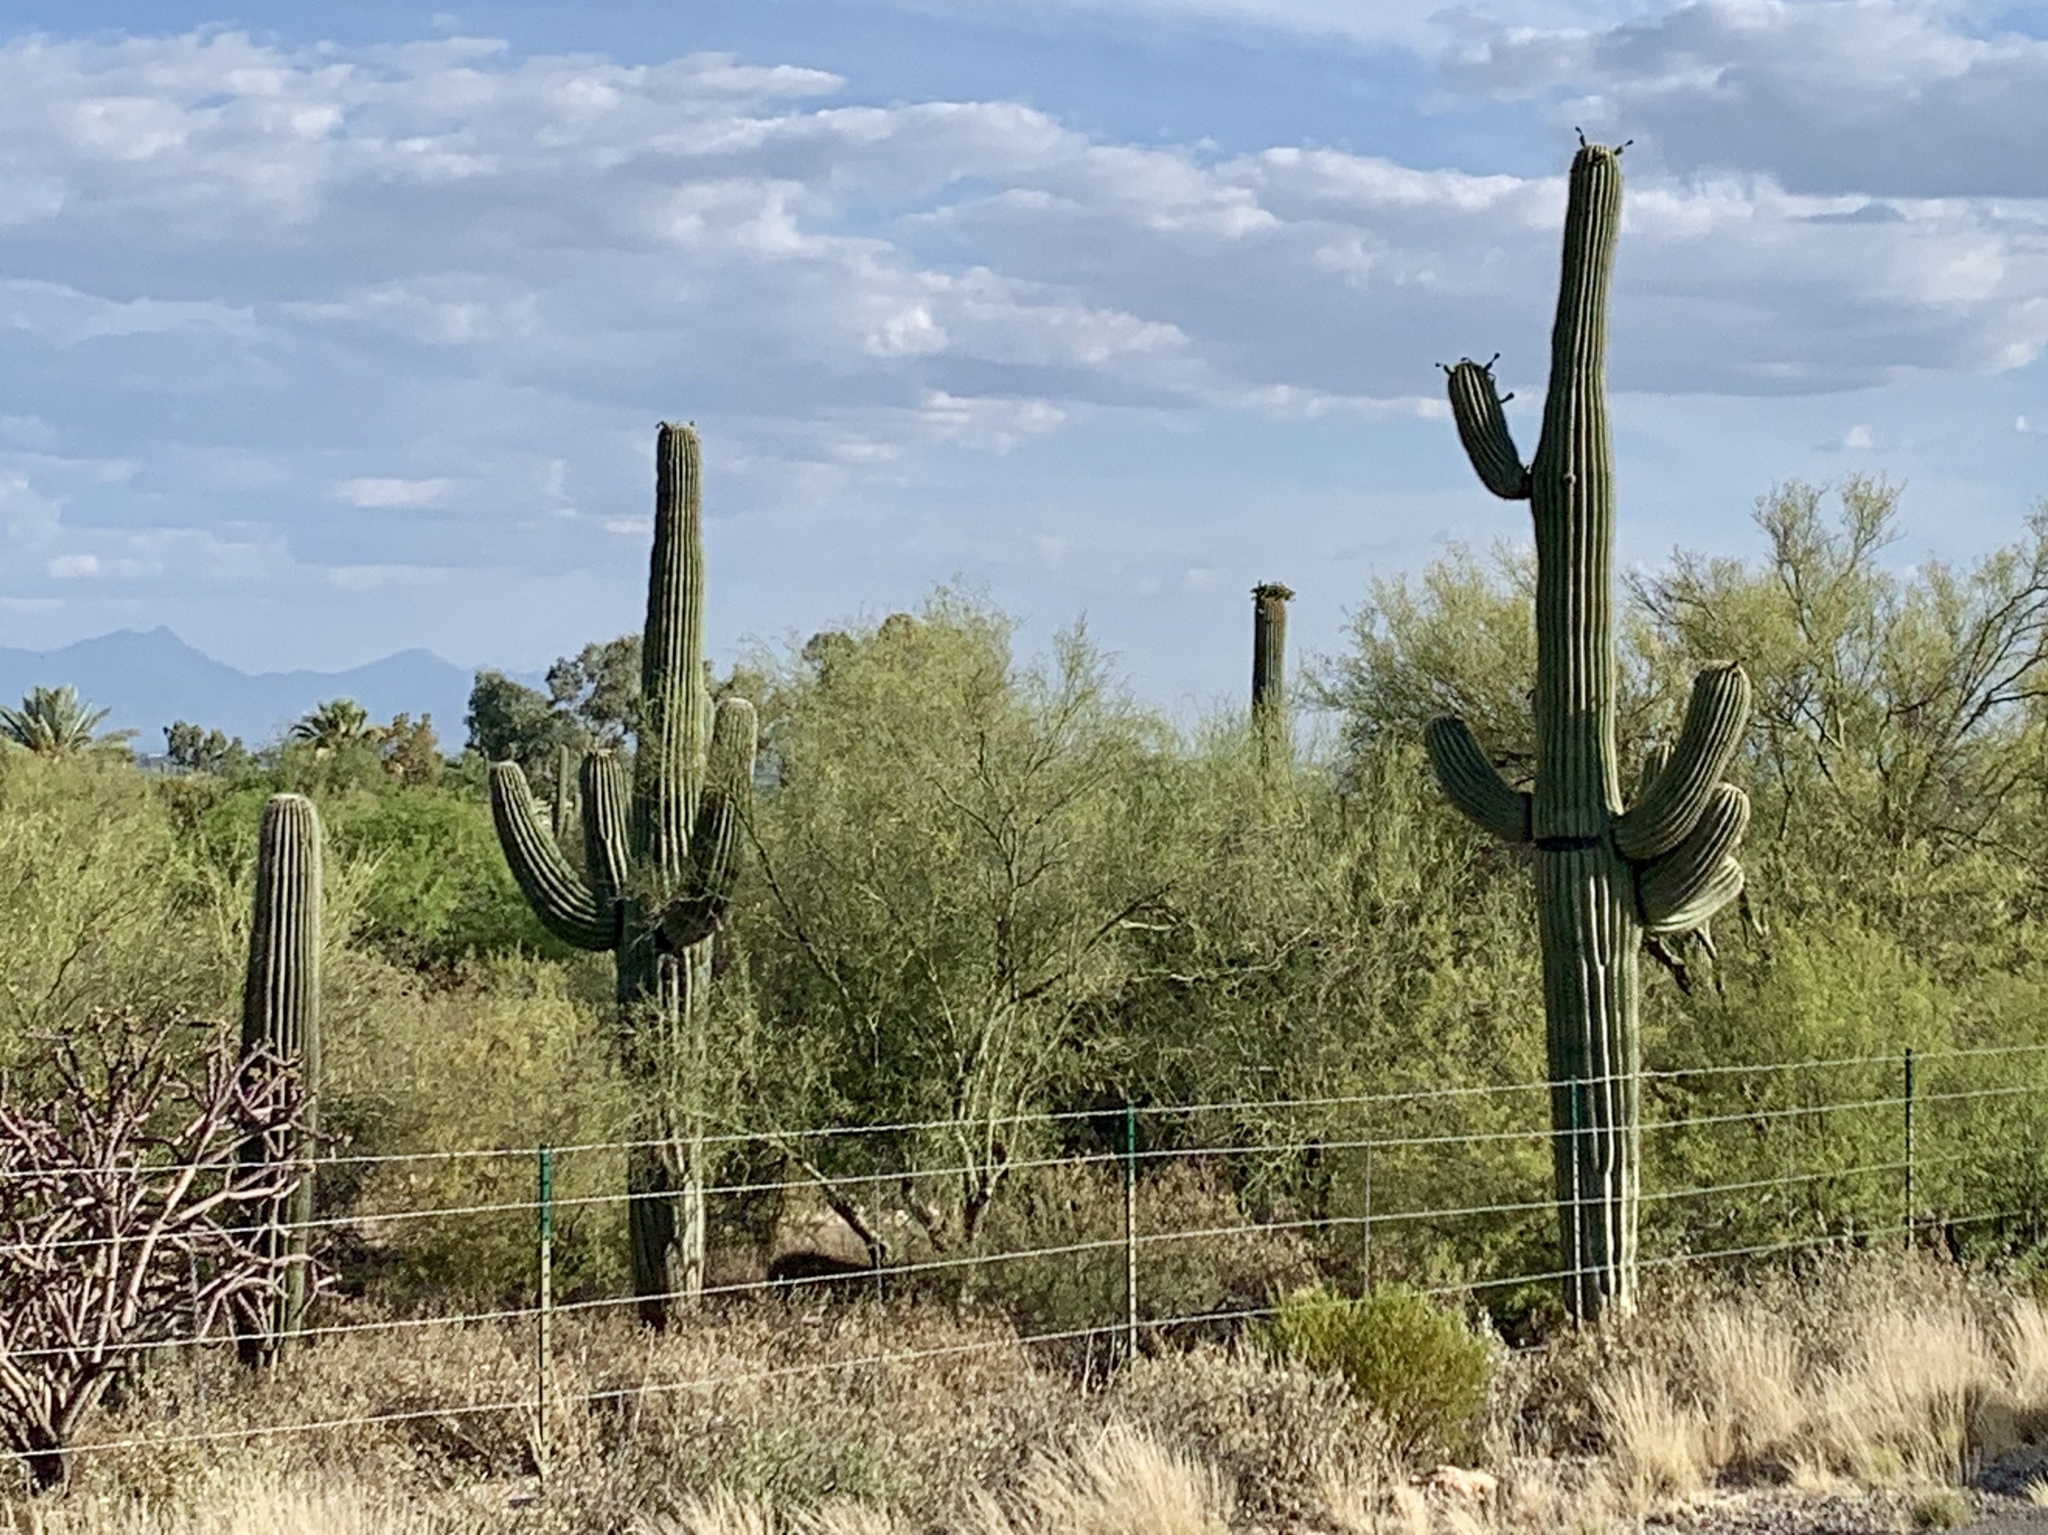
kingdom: Plantae
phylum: Tracheophyta
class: Magnoliopsida
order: Caryophyllales
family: Cactaceae
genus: Carnegiea
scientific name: Carnegiea gigantea
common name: Saguaro
